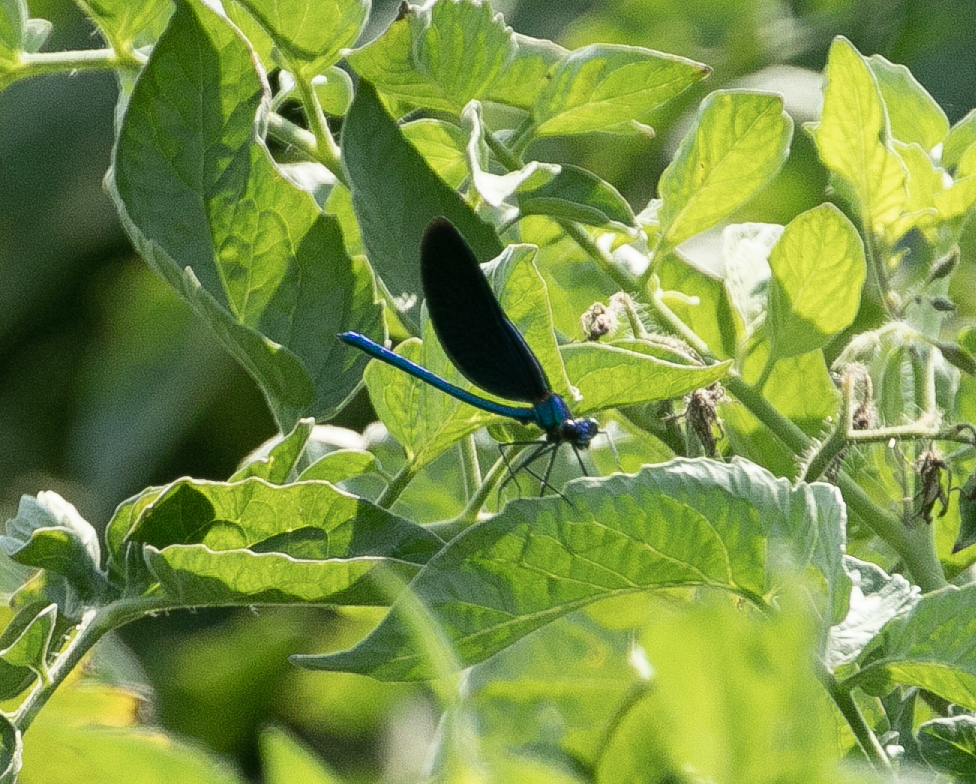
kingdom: Animalia
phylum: Arthropoda
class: Insecta
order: Odonata
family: Calopterygidae
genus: Calopteryx
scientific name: Calopteryx virgo
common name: Beautiful demoiselle
